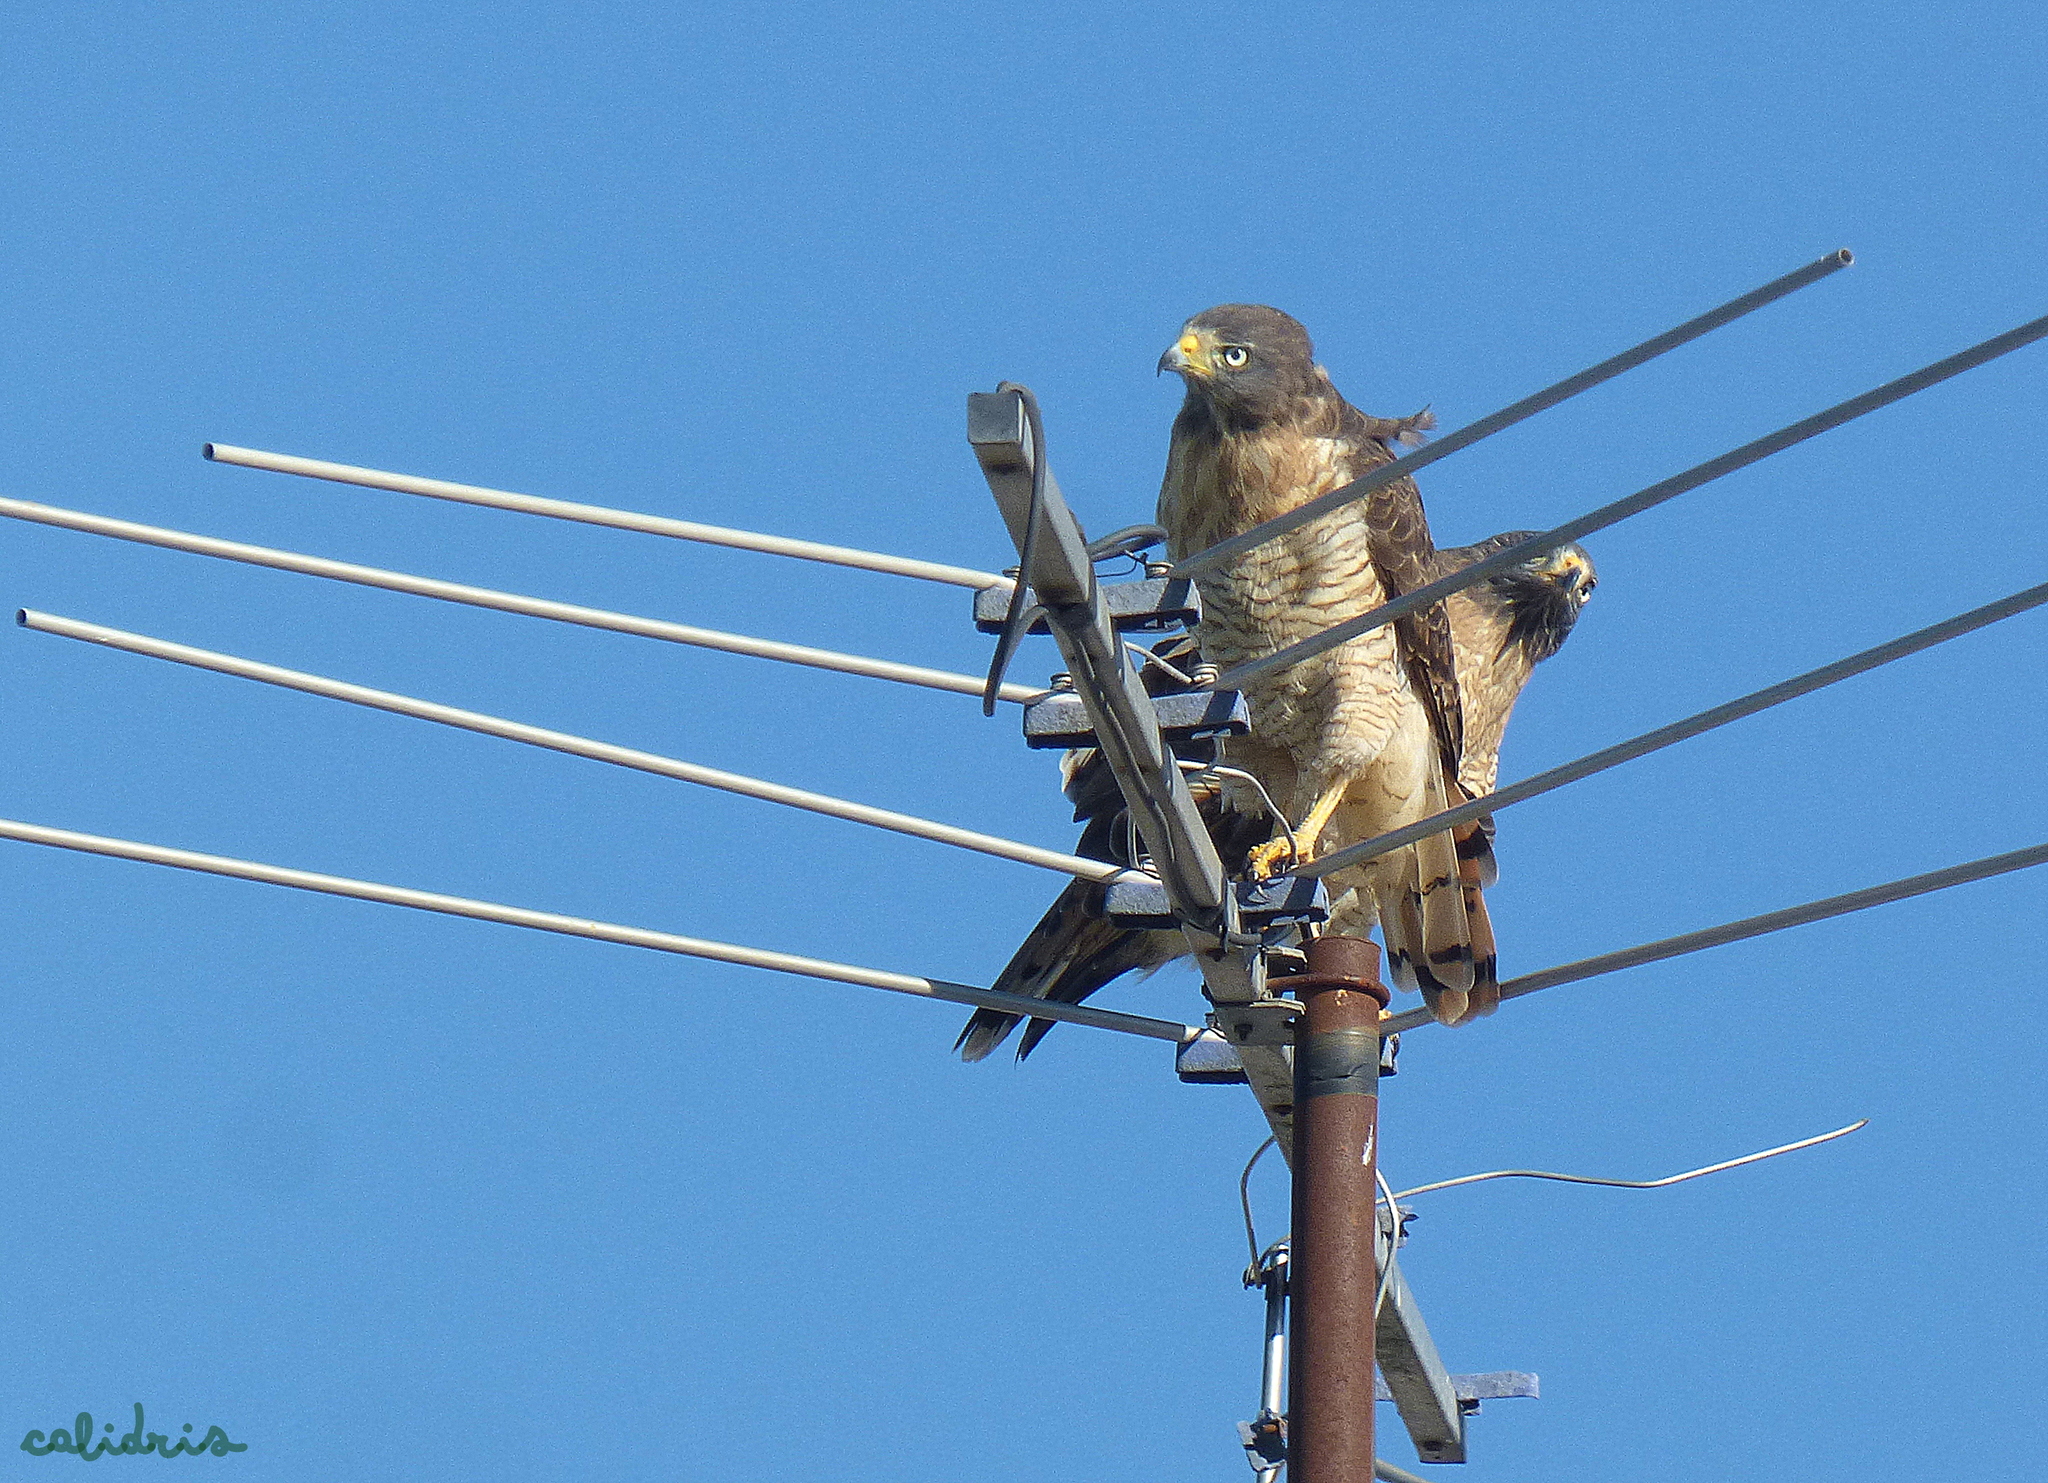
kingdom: Animalia
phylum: Chordata
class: Aves
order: Accipitriformes
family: Accipitridae
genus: Rupornis
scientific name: Rupornis magnirostris
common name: Roadside hawk
